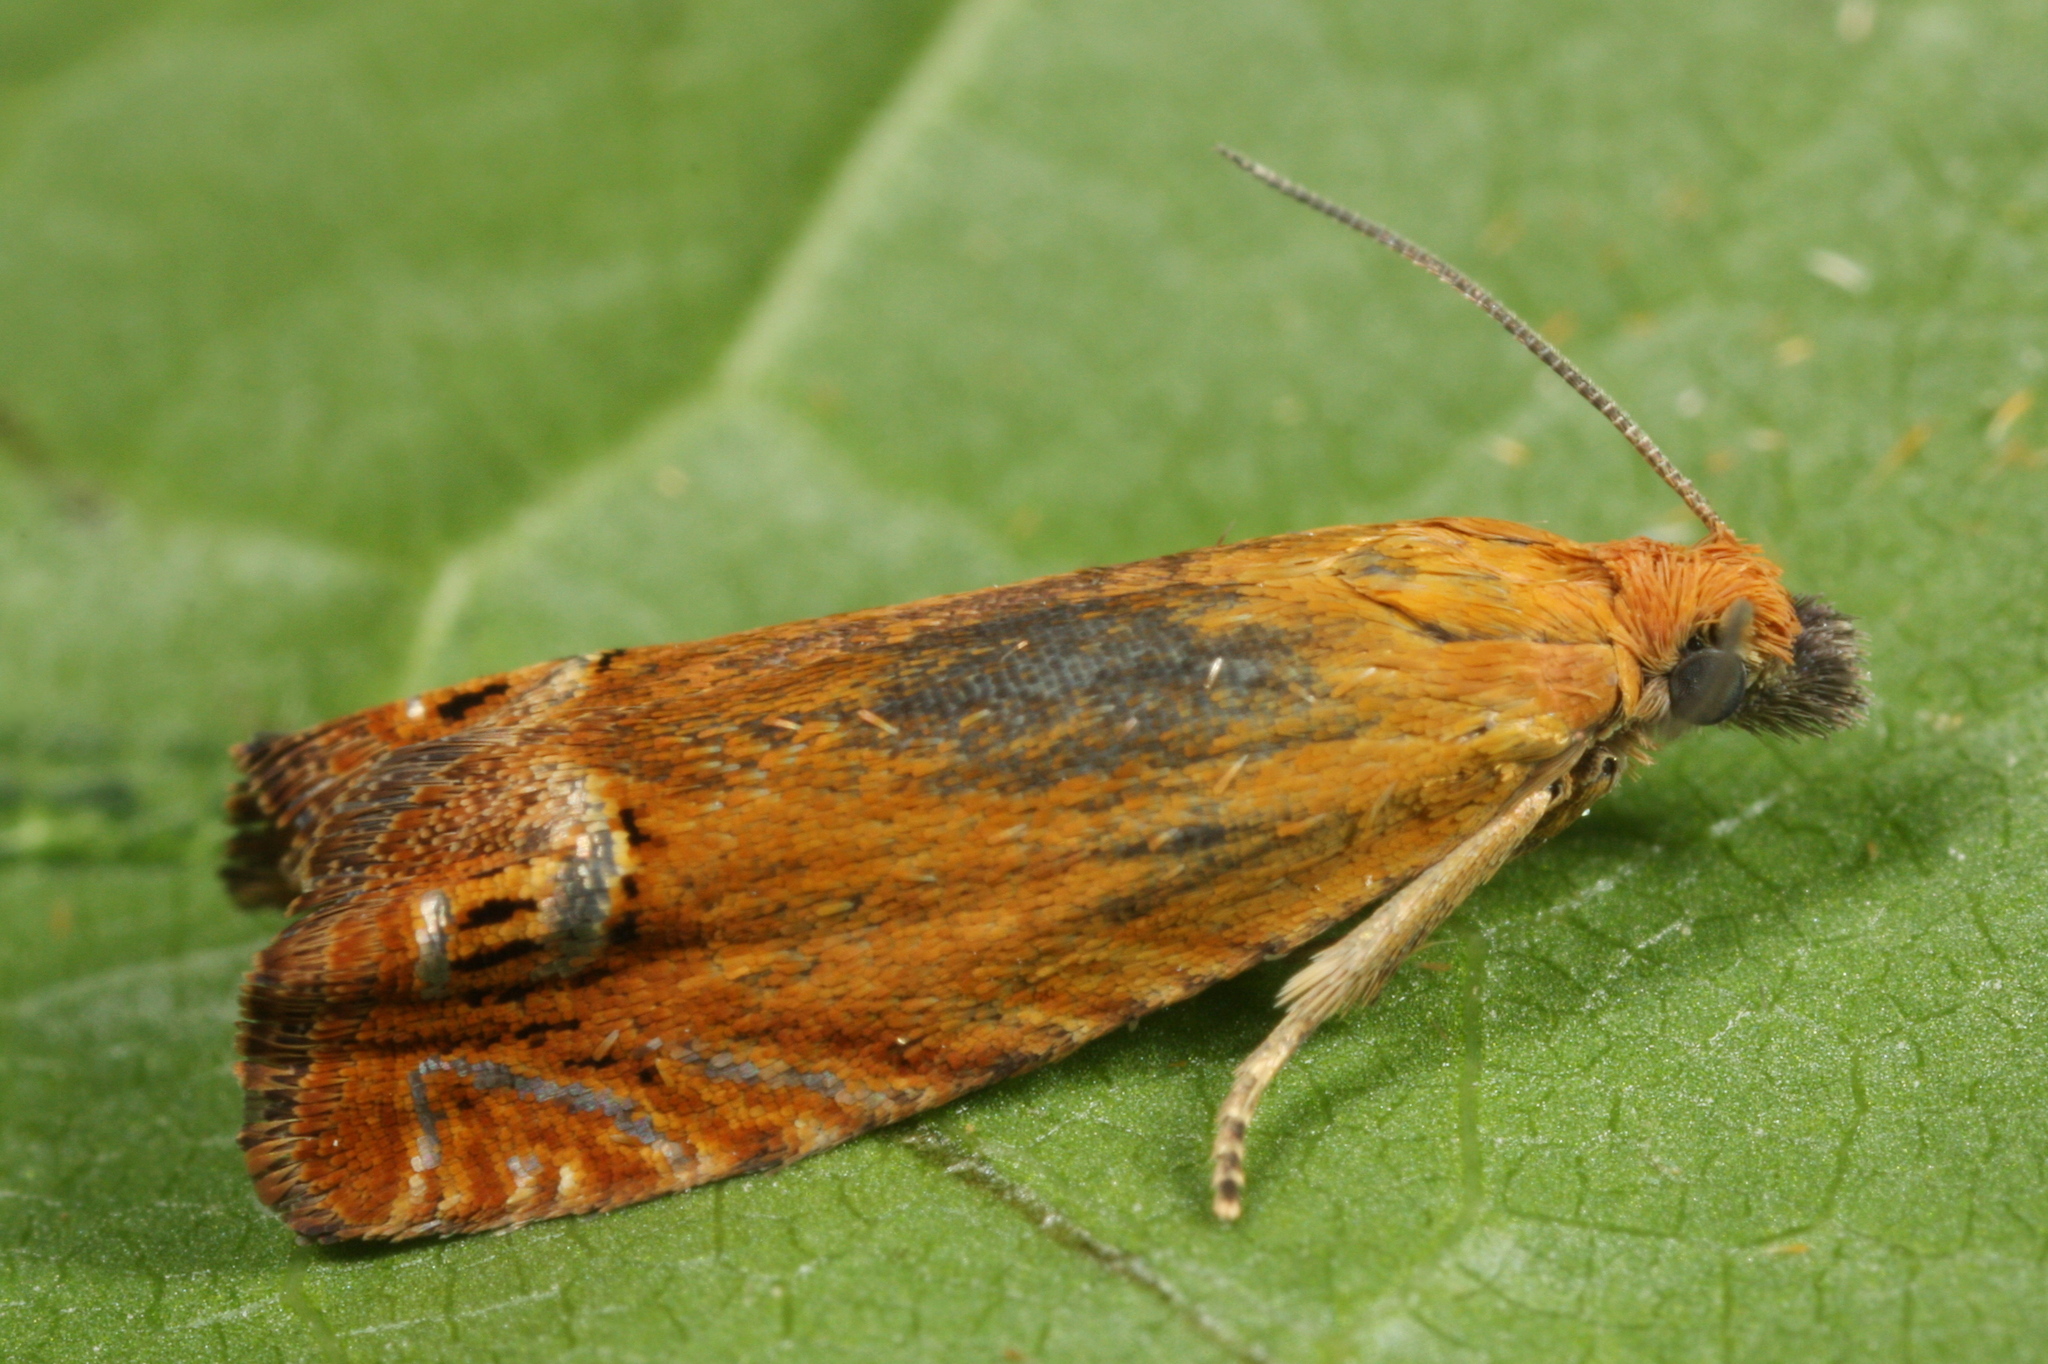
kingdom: Animalia
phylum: Arthropoda
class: Insecta
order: Lepidoptera
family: Tortricidae
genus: Lathronympha
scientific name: Lathronympha strigana
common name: Red piercer
